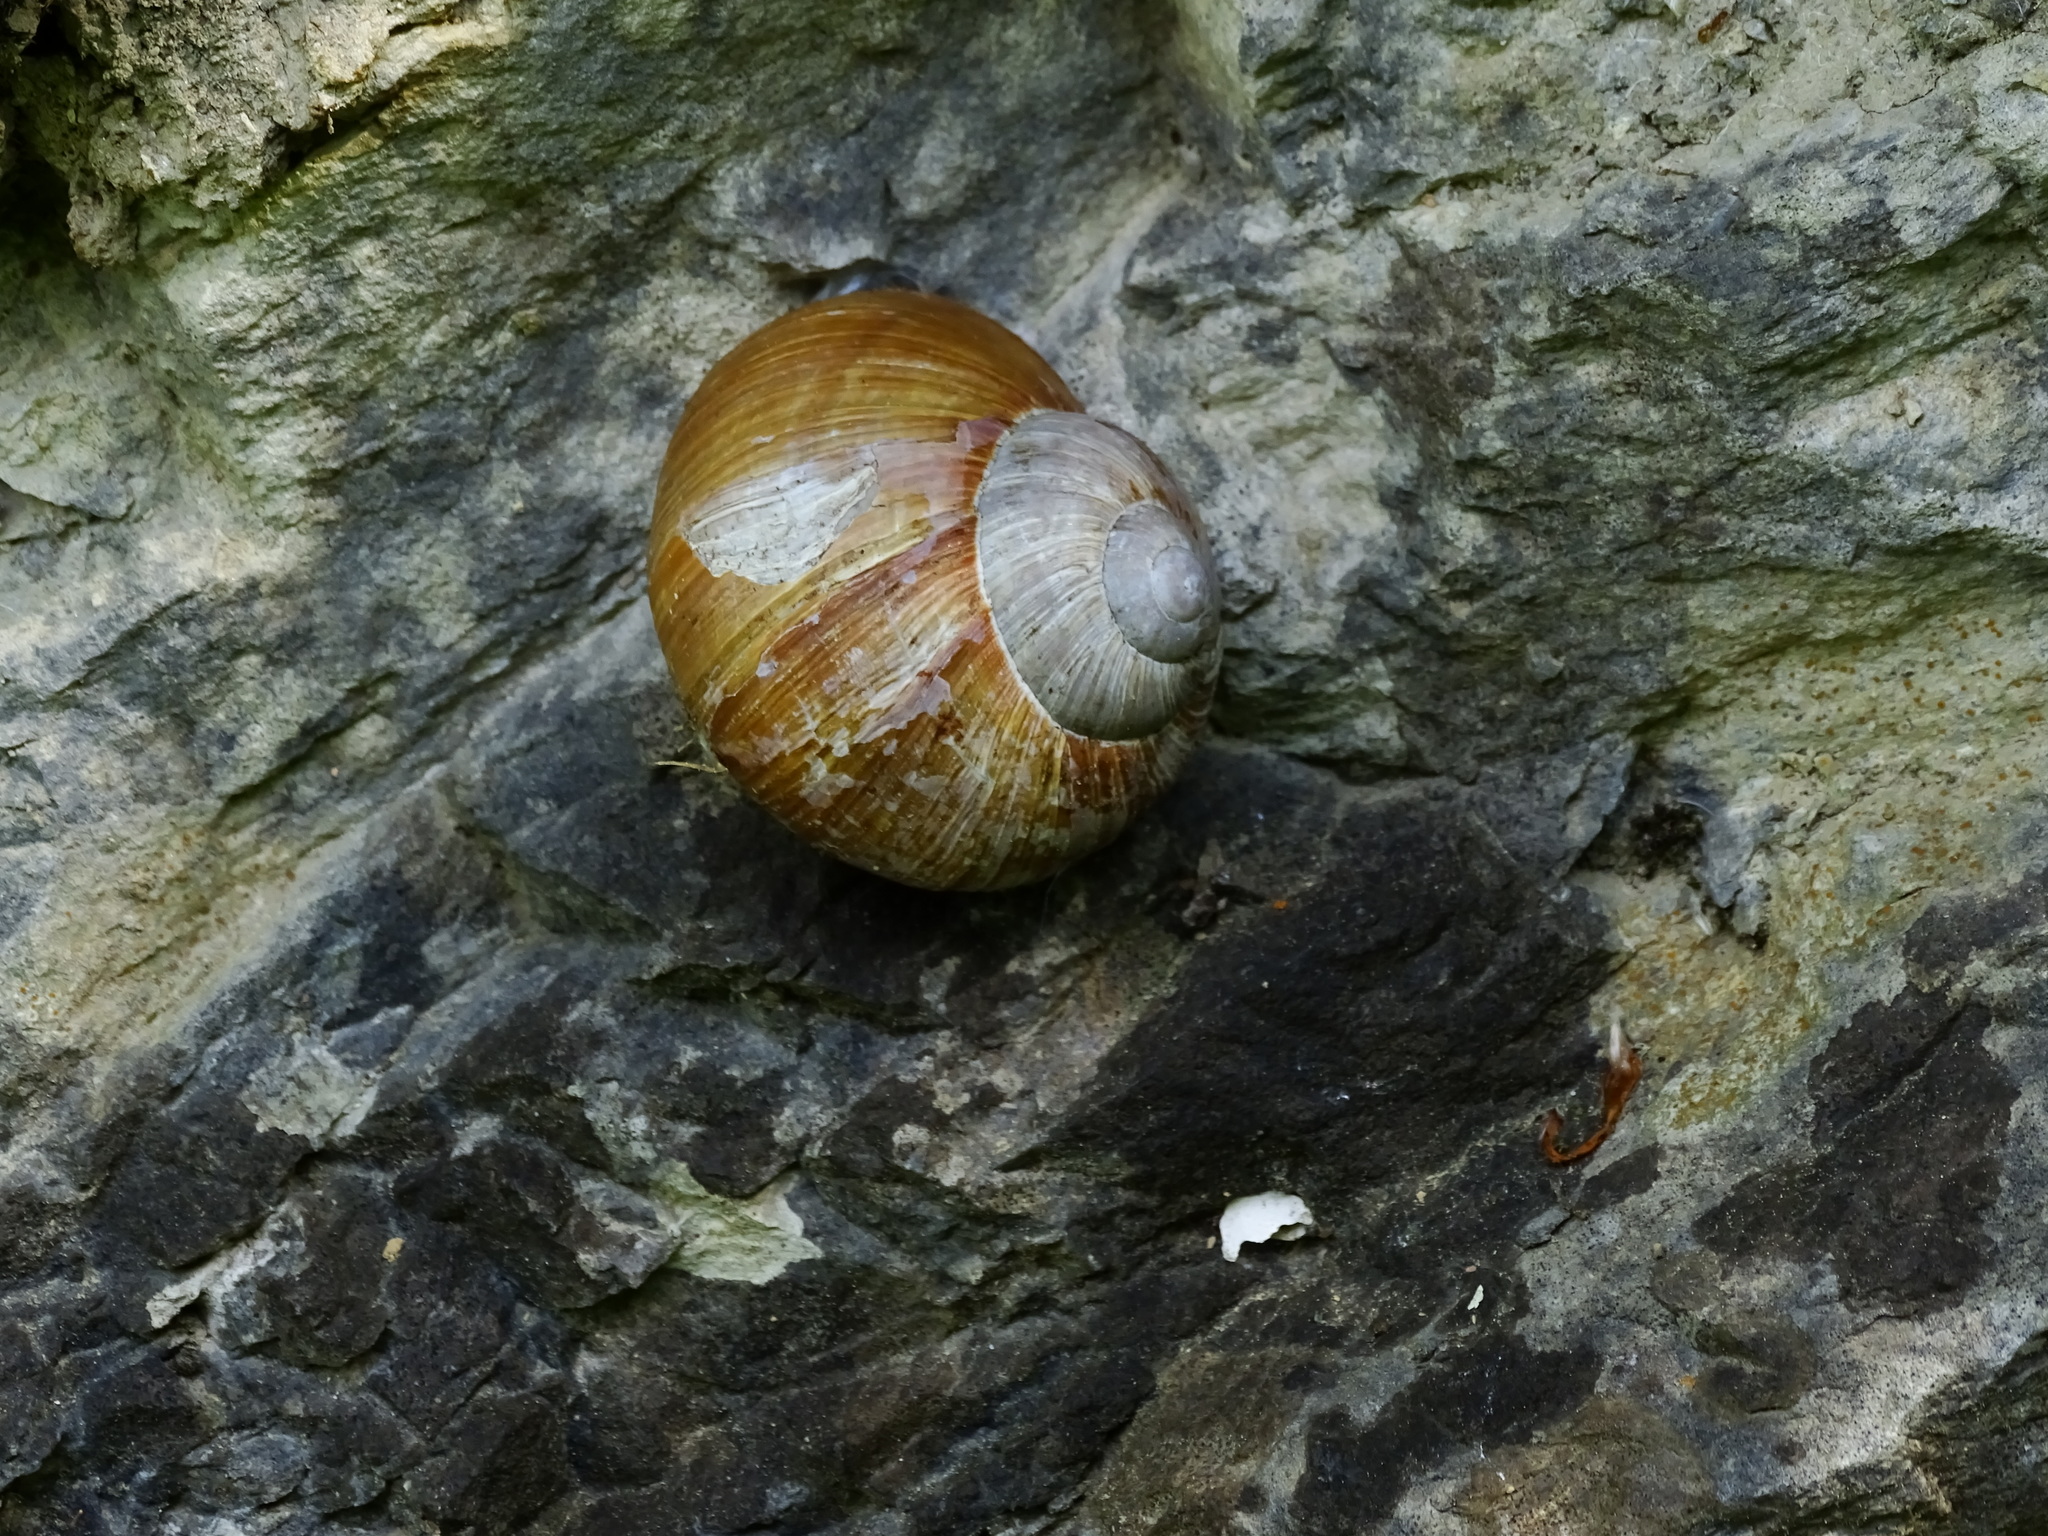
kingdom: Animalia
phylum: Mollusca
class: Gastropoda
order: Stylommatophora
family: Helicidae
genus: Helix
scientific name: Helix pomatia
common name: Roman snail
